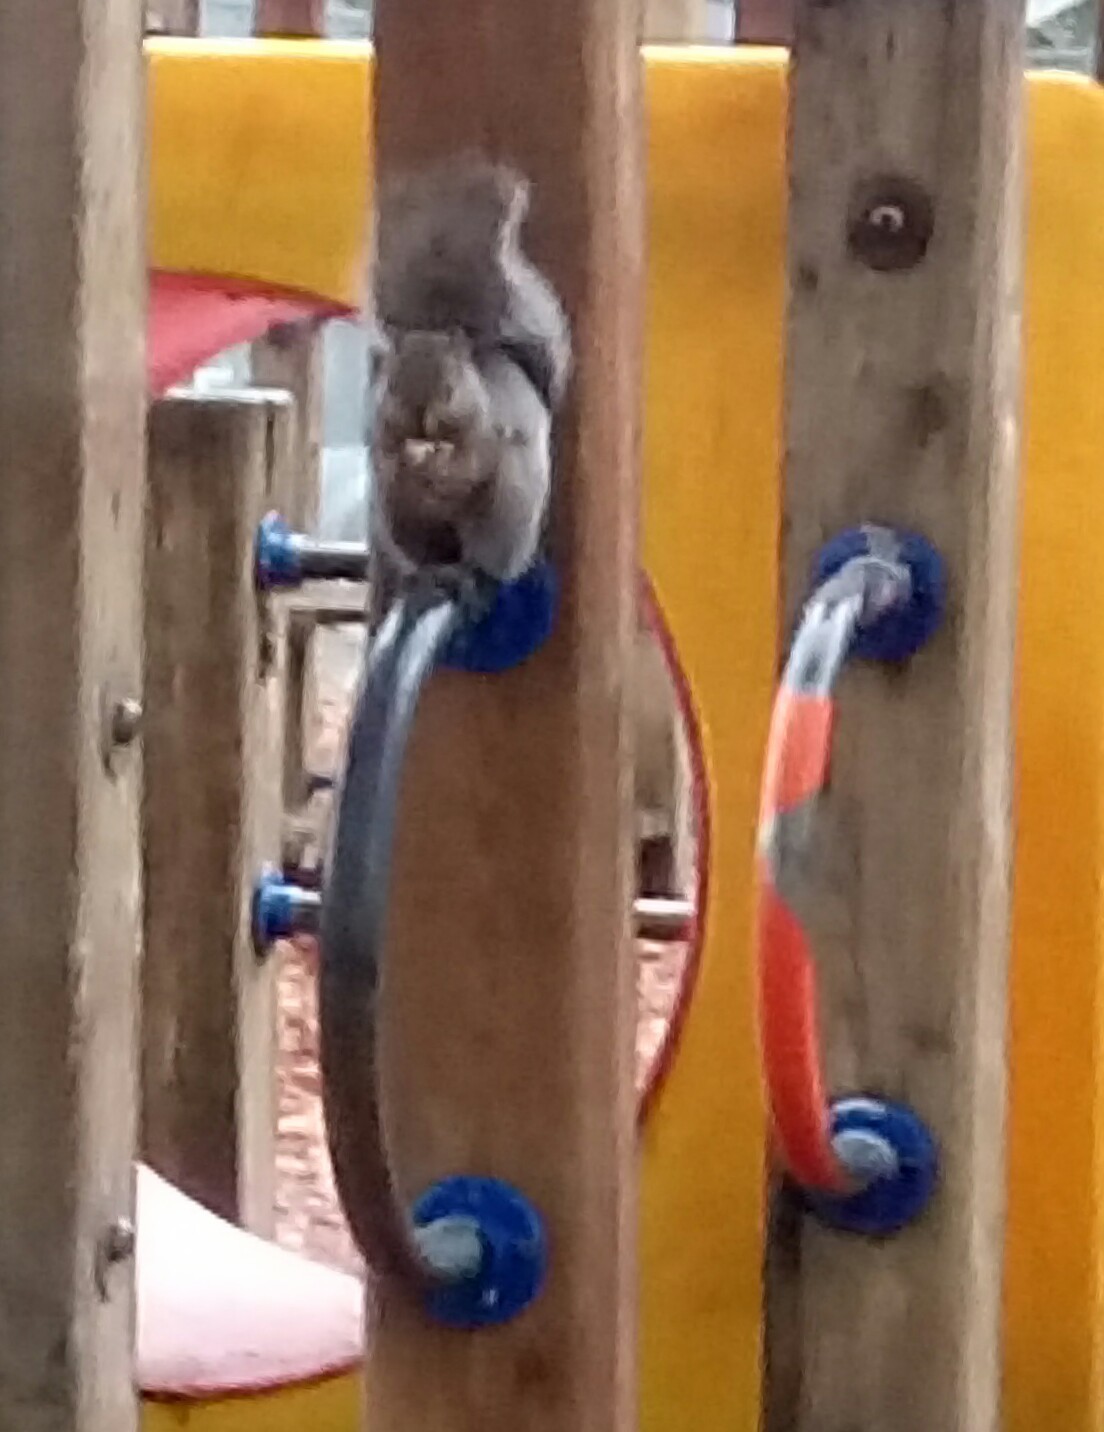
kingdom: Animalia
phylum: Chordata
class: Mammalia
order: Rodentia
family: Sciuridae
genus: Sciurus
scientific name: Sciurus carolinensis
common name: Eastern gray squirrel
